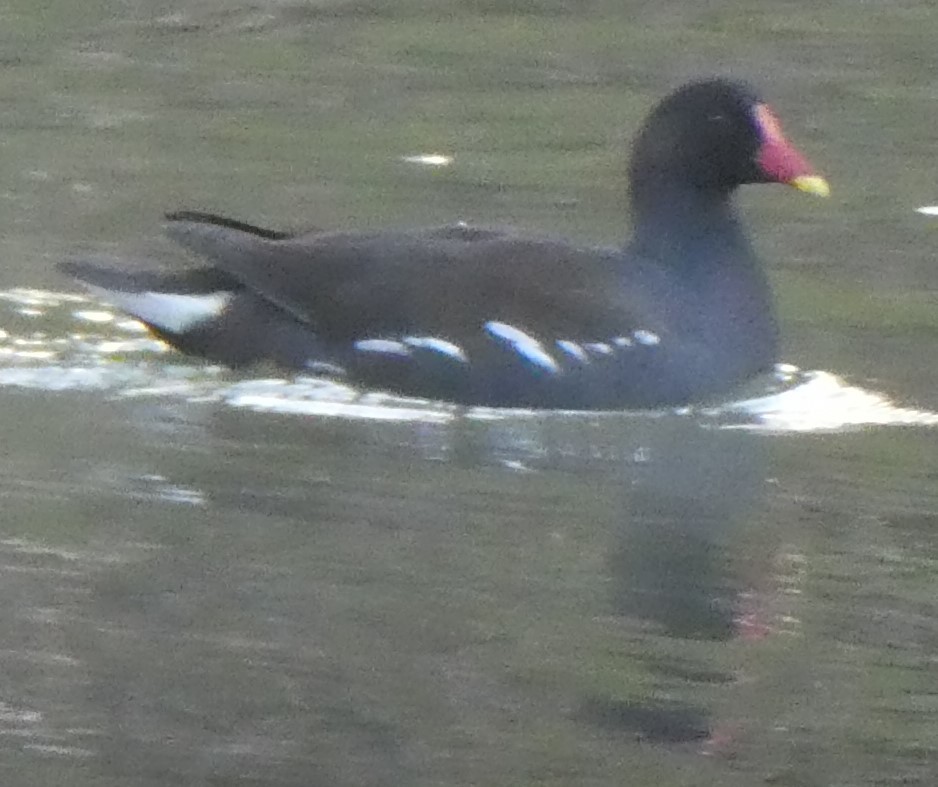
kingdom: Animalia
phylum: Chordata
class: Aves
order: Gruiformes
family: Rallidae
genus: Gallinula
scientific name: Gallinula chloropus
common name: Common moorhen
